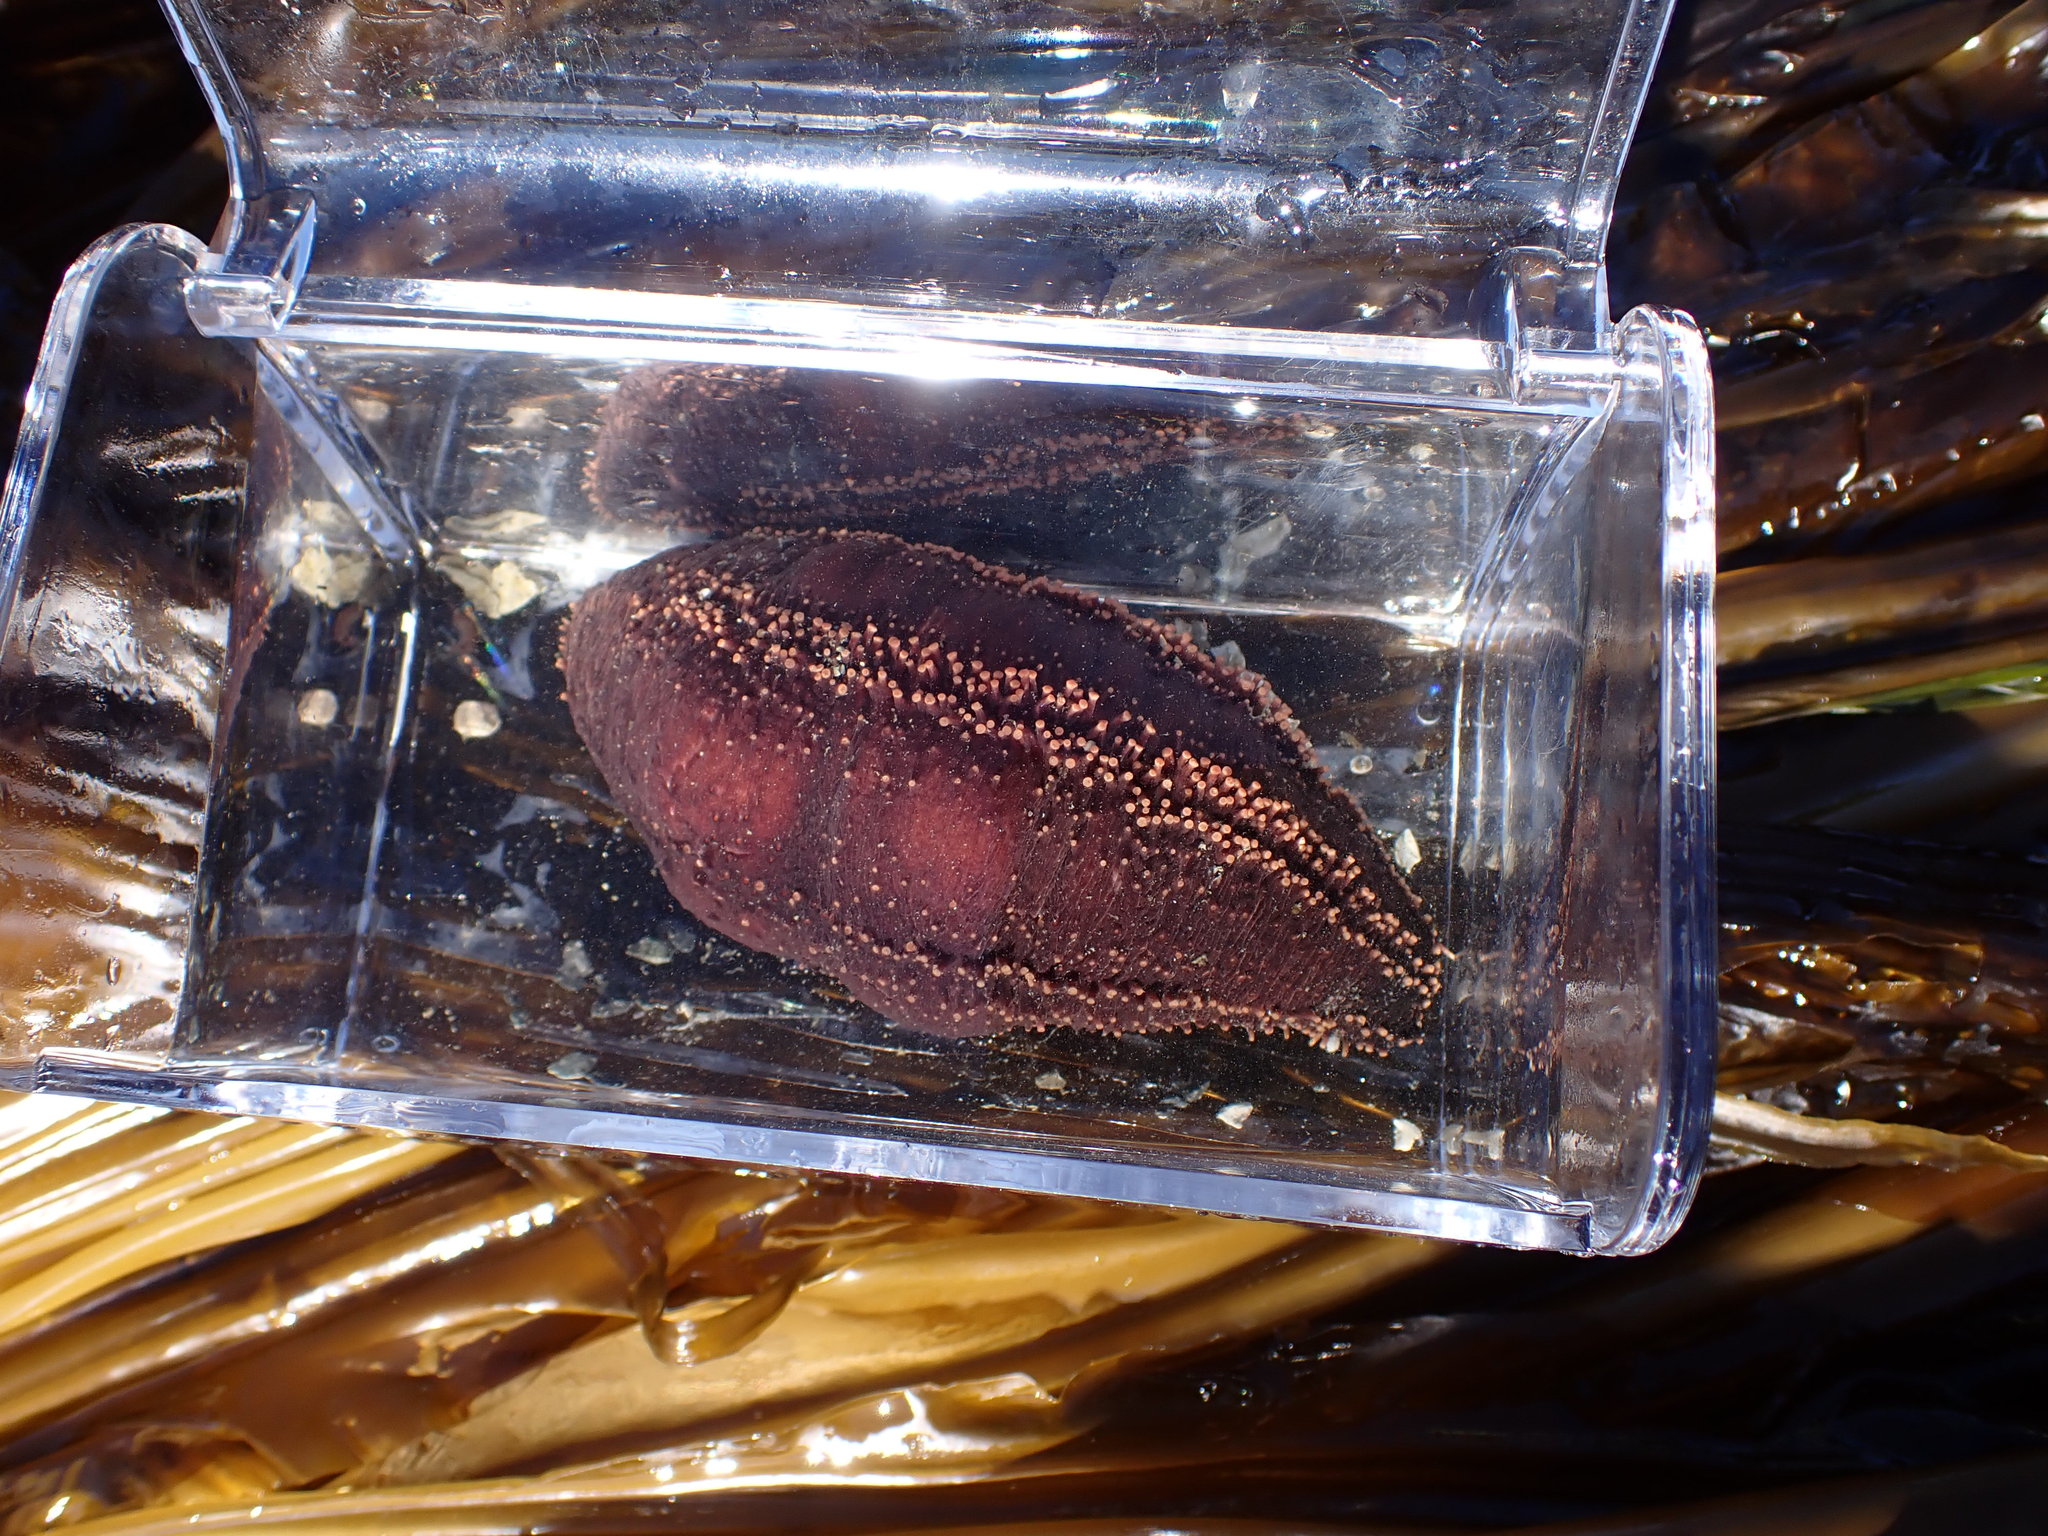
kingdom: Animalia
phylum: Echinodermata
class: Holothuroidea
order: Dendrochirotida
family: Cucumariidae
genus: Cucumaria
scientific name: Cucumaria miniata
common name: Orange sea cucumber
